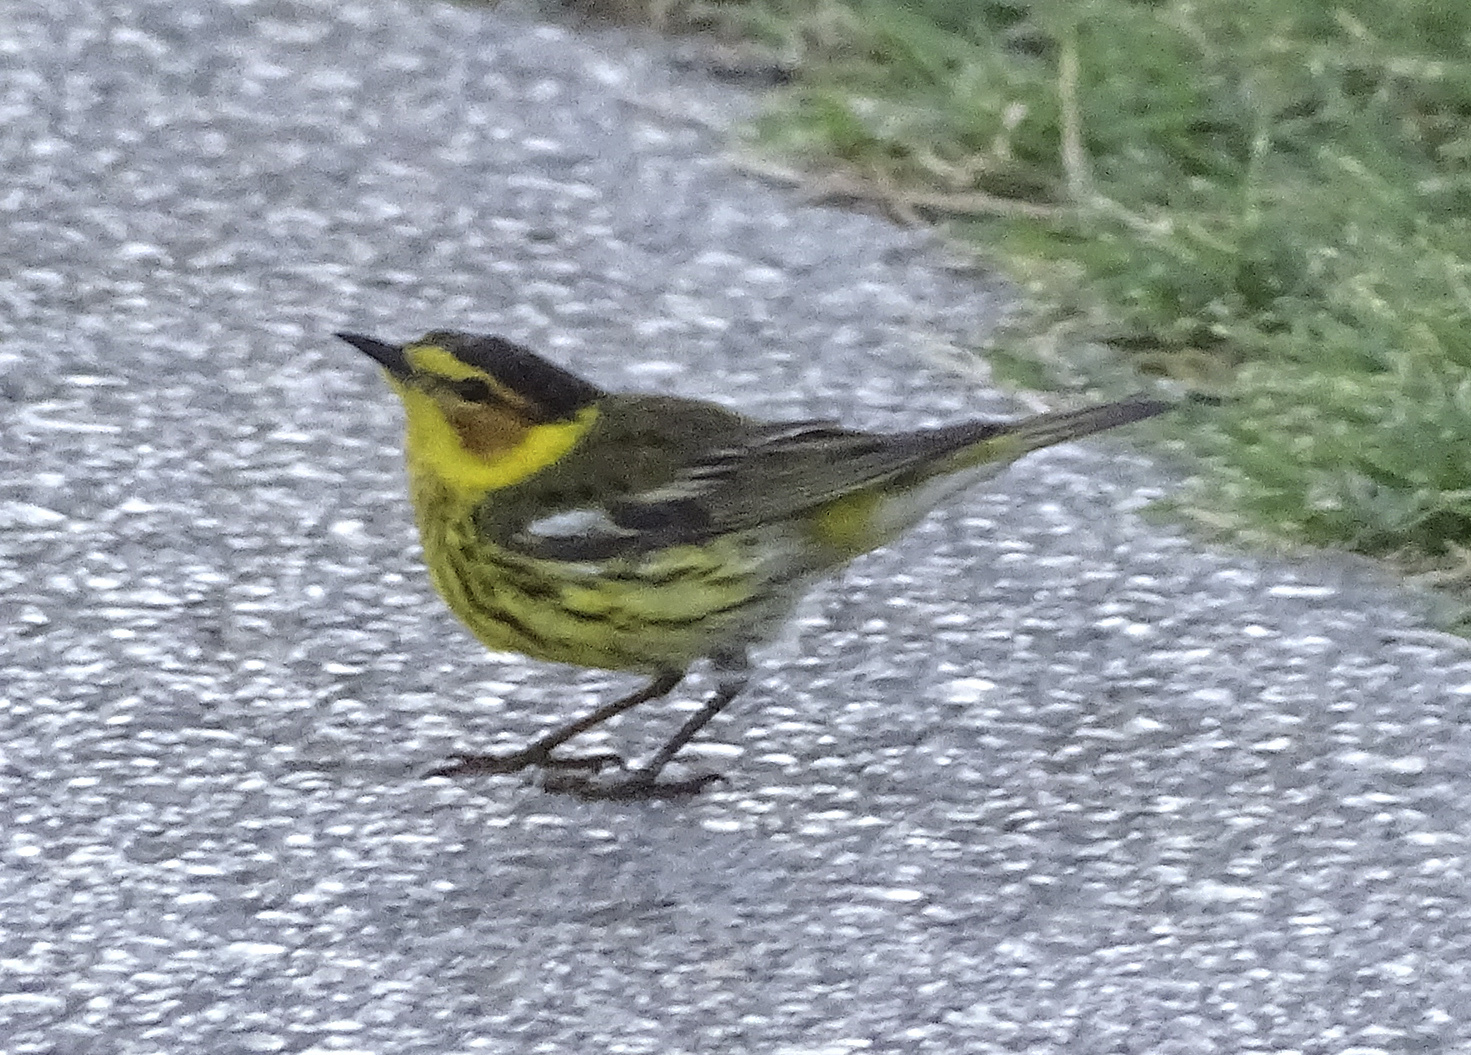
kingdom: Animalia
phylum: Chordata
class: Aves
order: Passeriformes
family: Parulidae
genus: Setophaga
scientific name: Setophaga tigrina
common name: Cape may warbler
